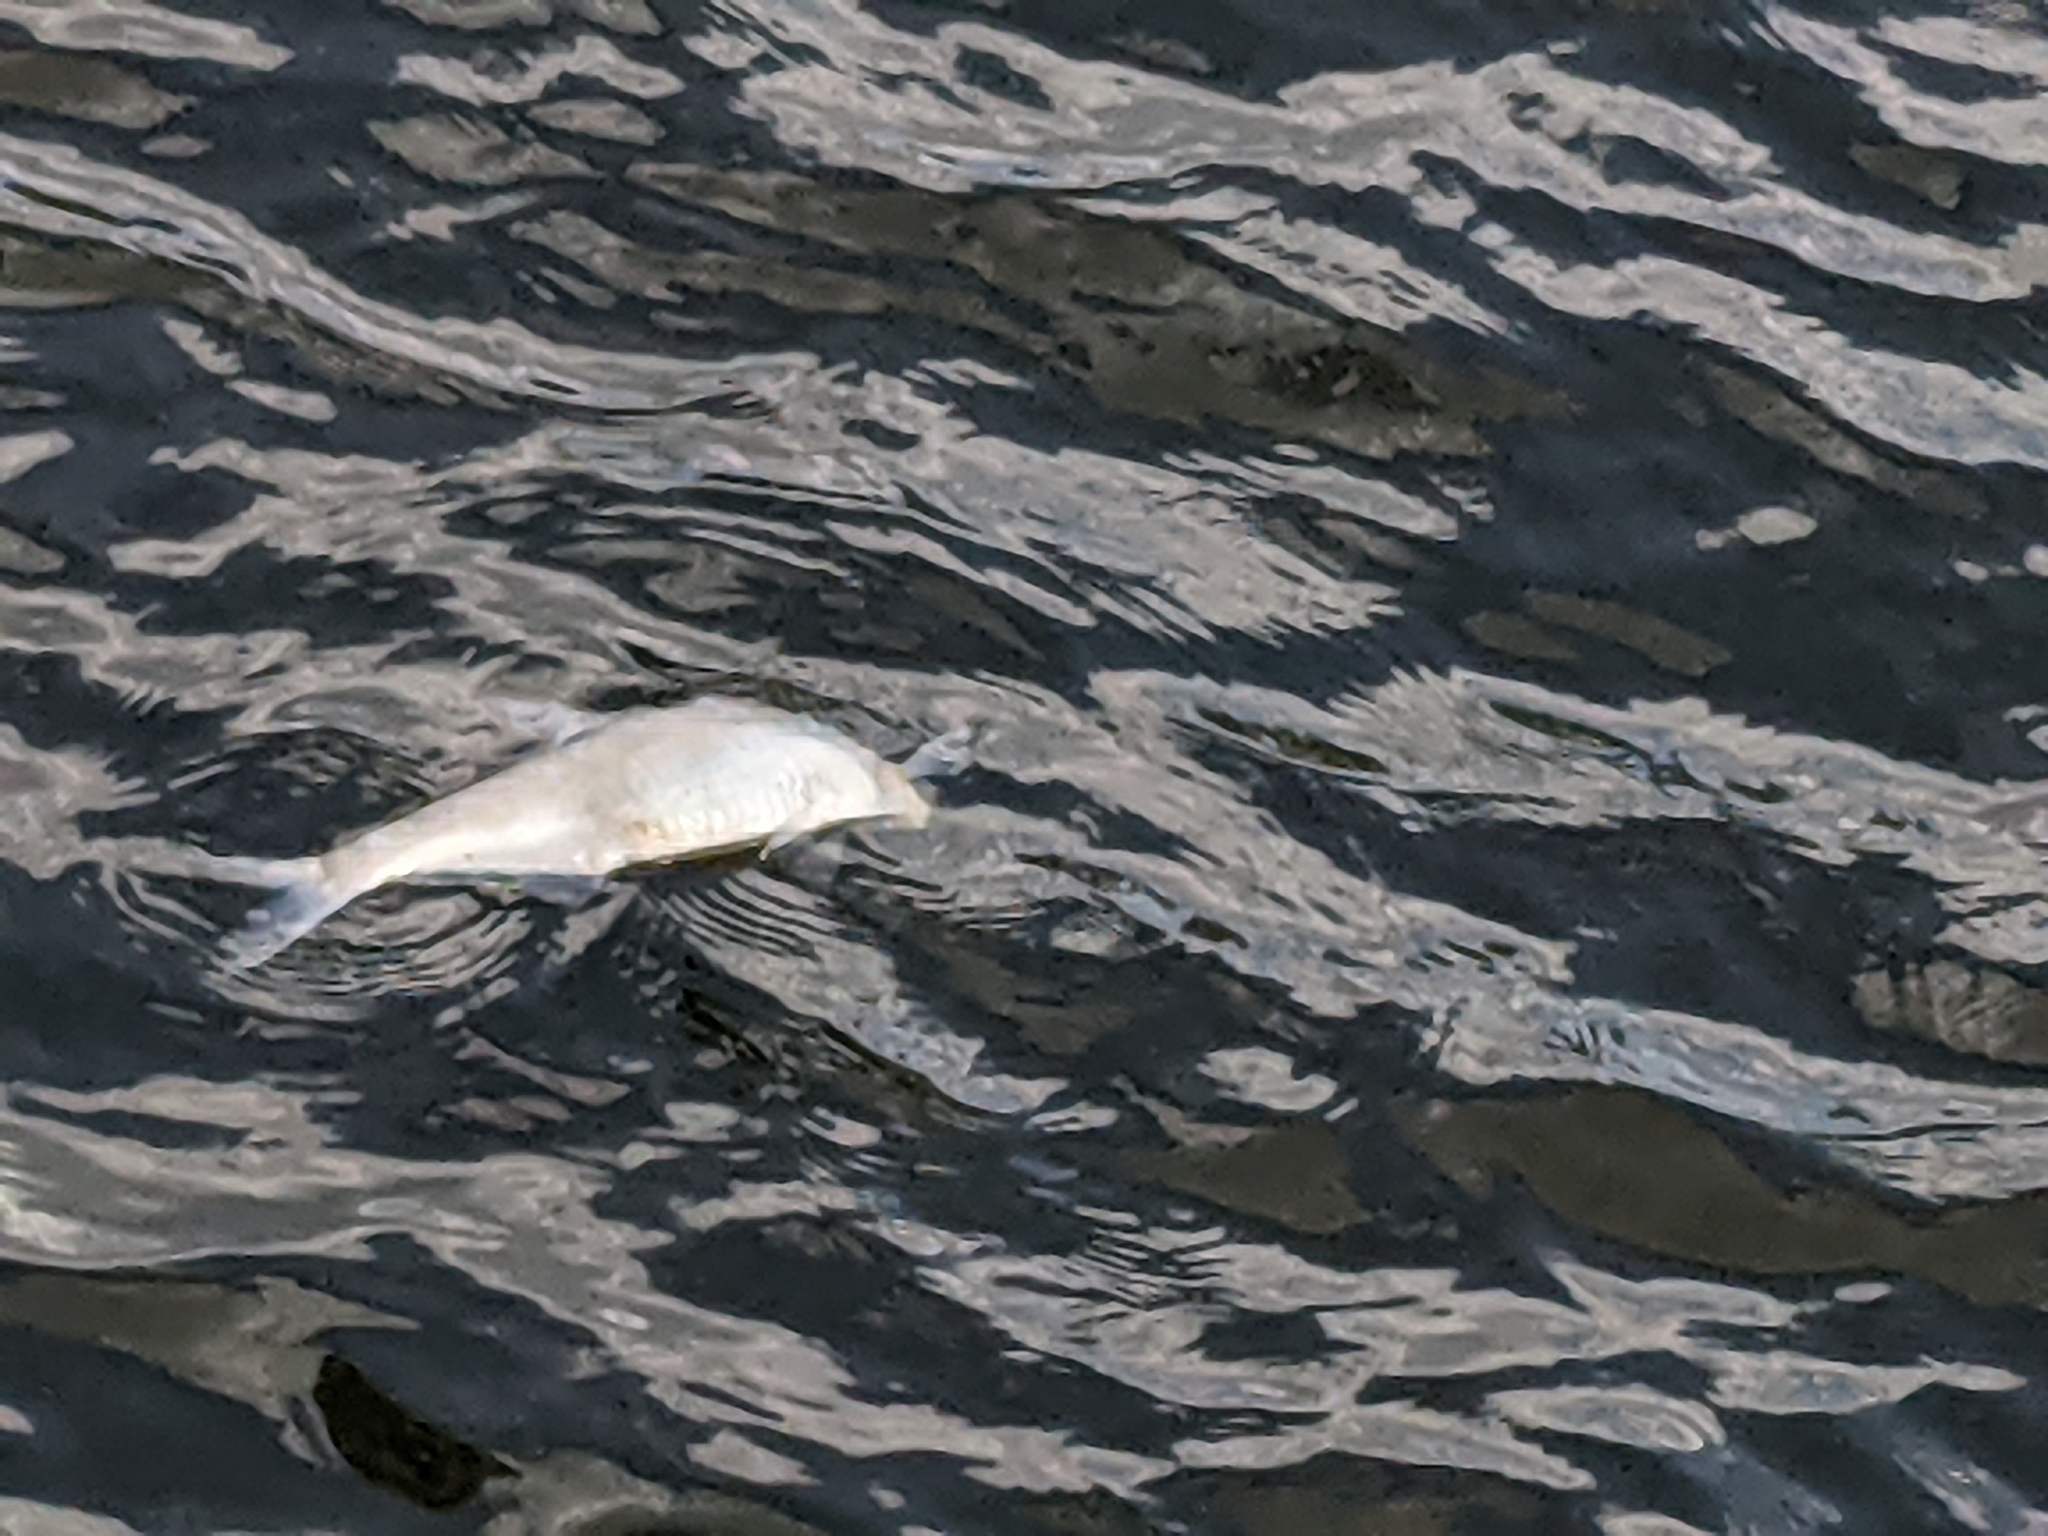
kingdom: Animalia
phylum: Chordata
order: Clupeiformes
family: Clupeidae
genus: Dorosoma
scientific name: Dorosoma cepedianum
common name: Gizzard shad
